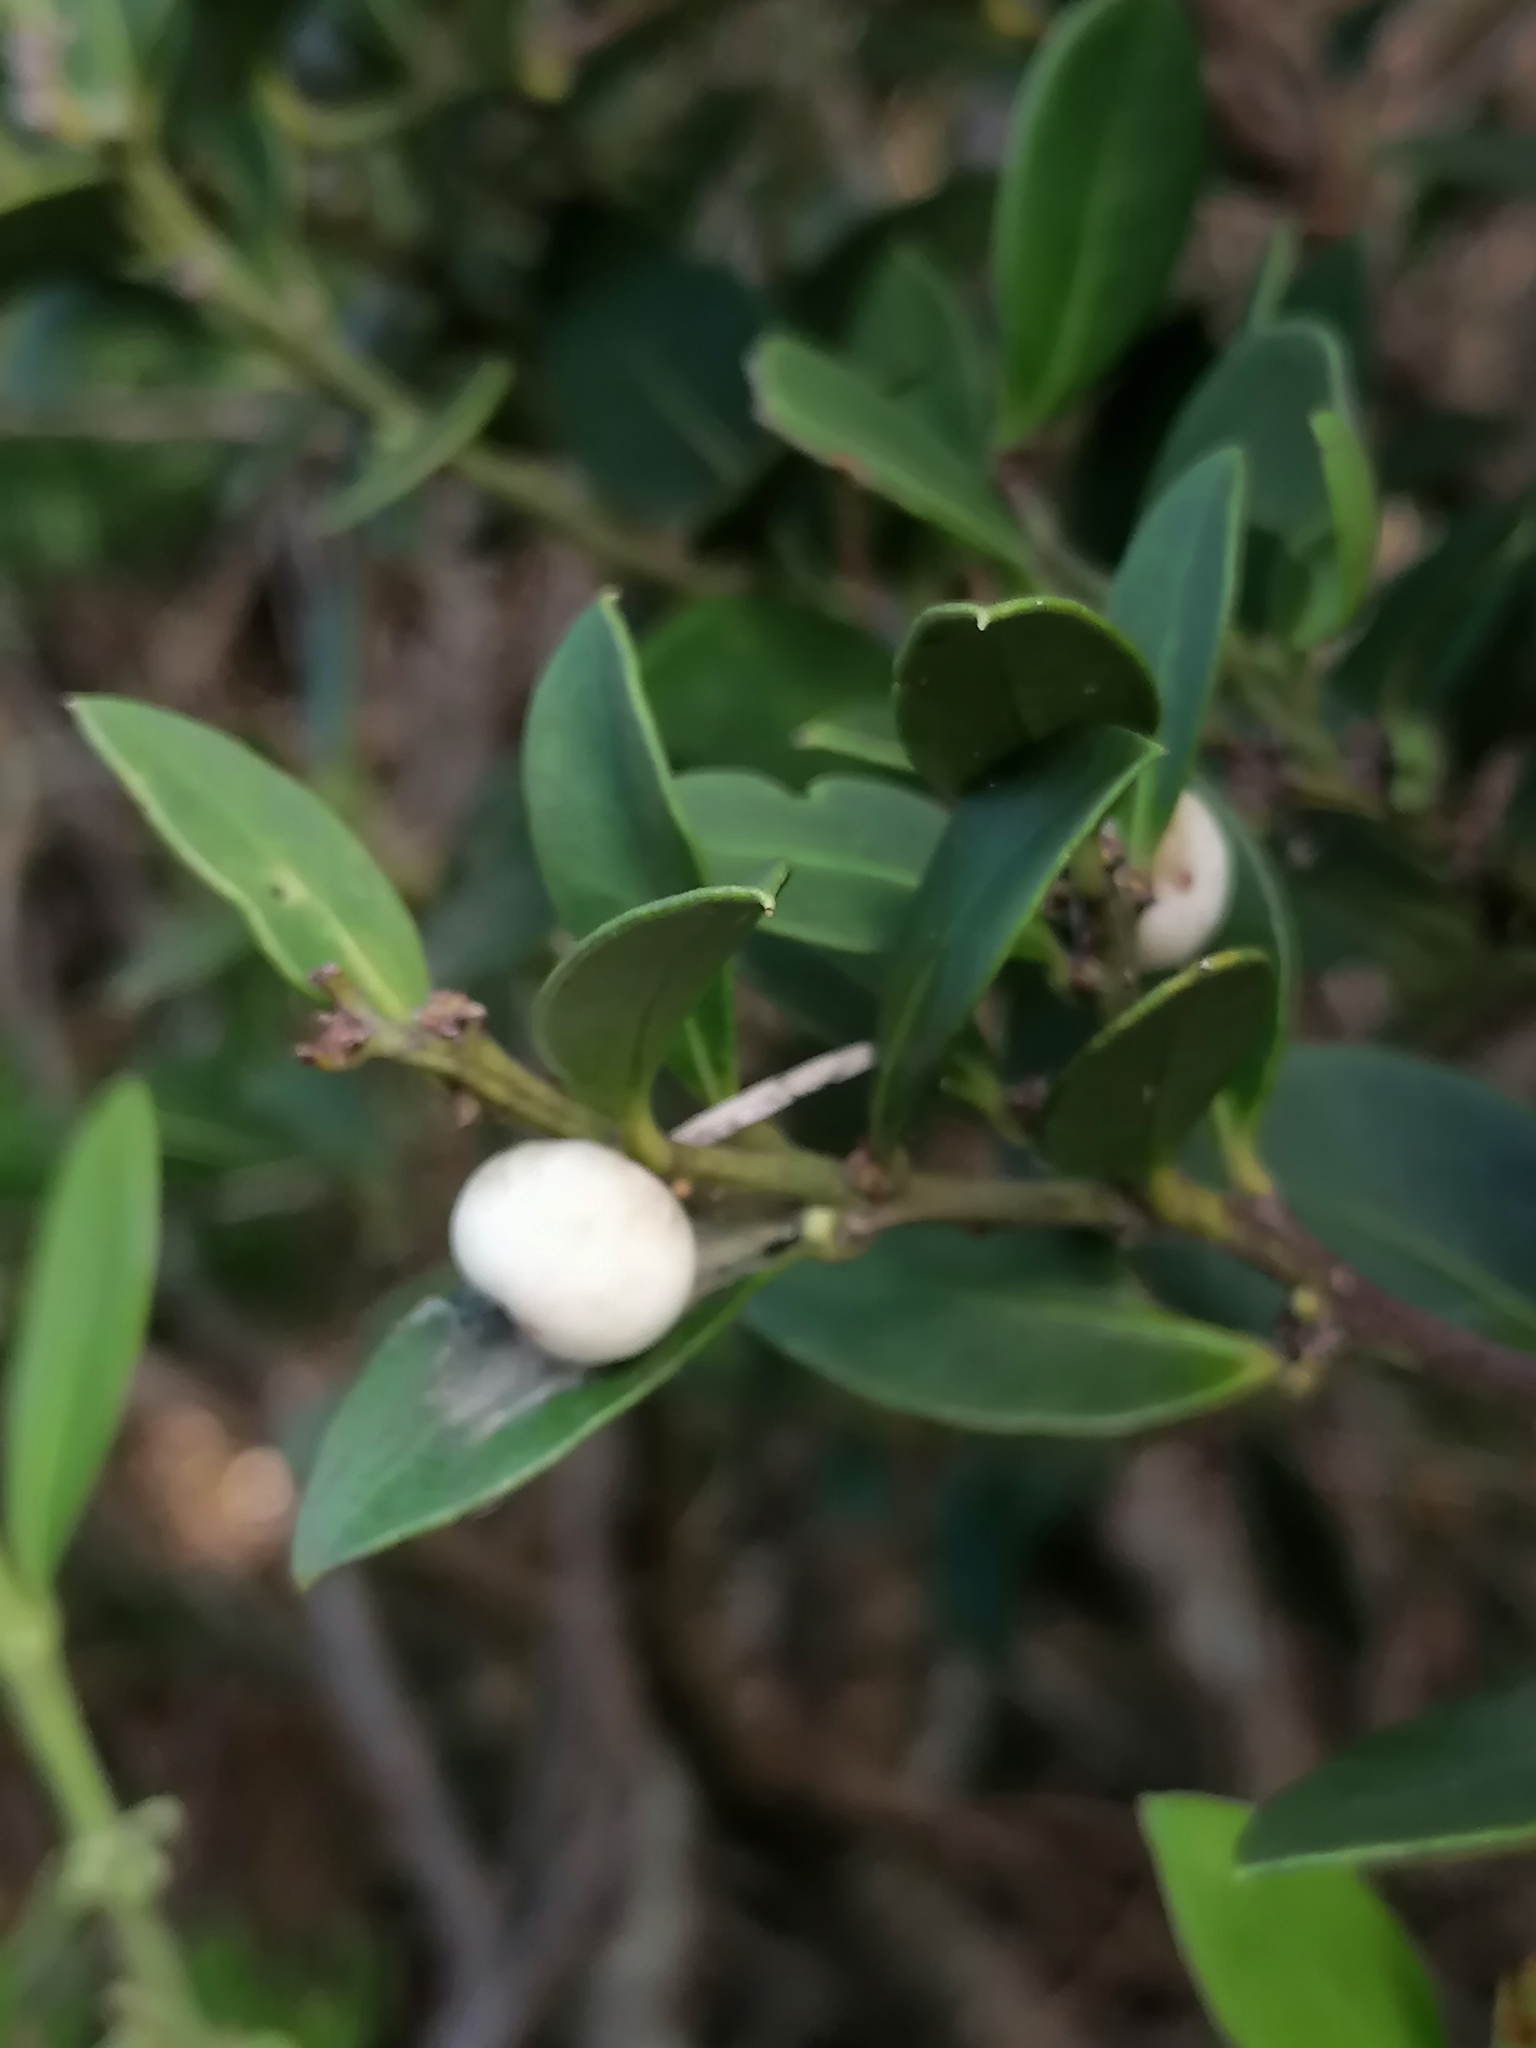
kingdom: Plantae
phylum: Tracheophyta
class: Magnoliopsida
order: Celastrales
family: Celastraceae
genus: Robsonodendron
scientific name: Robsonodendron maritimum
